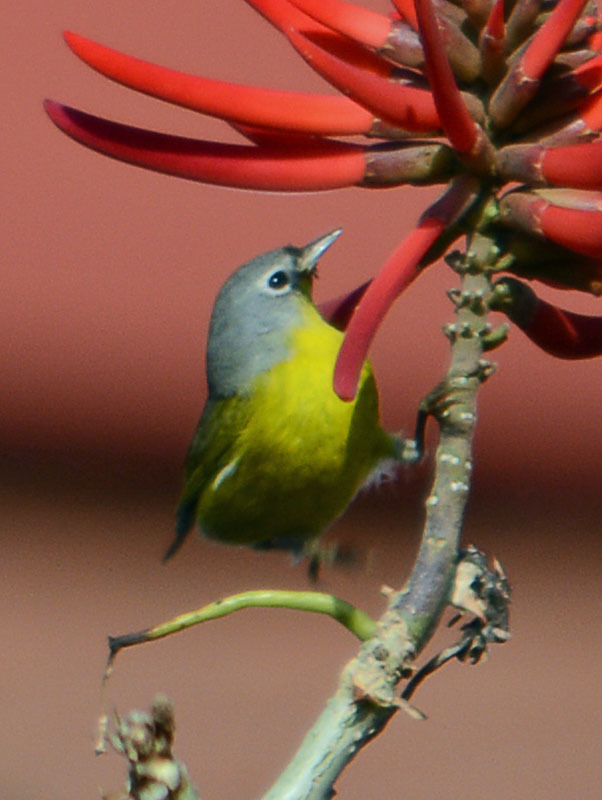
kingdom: Animalia
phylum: Chordata
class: Aves
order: Passeriformes
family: Parulidae
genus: Leiothlypis
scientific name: Leiothlypis ruficapilla
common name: Nashville warbler
